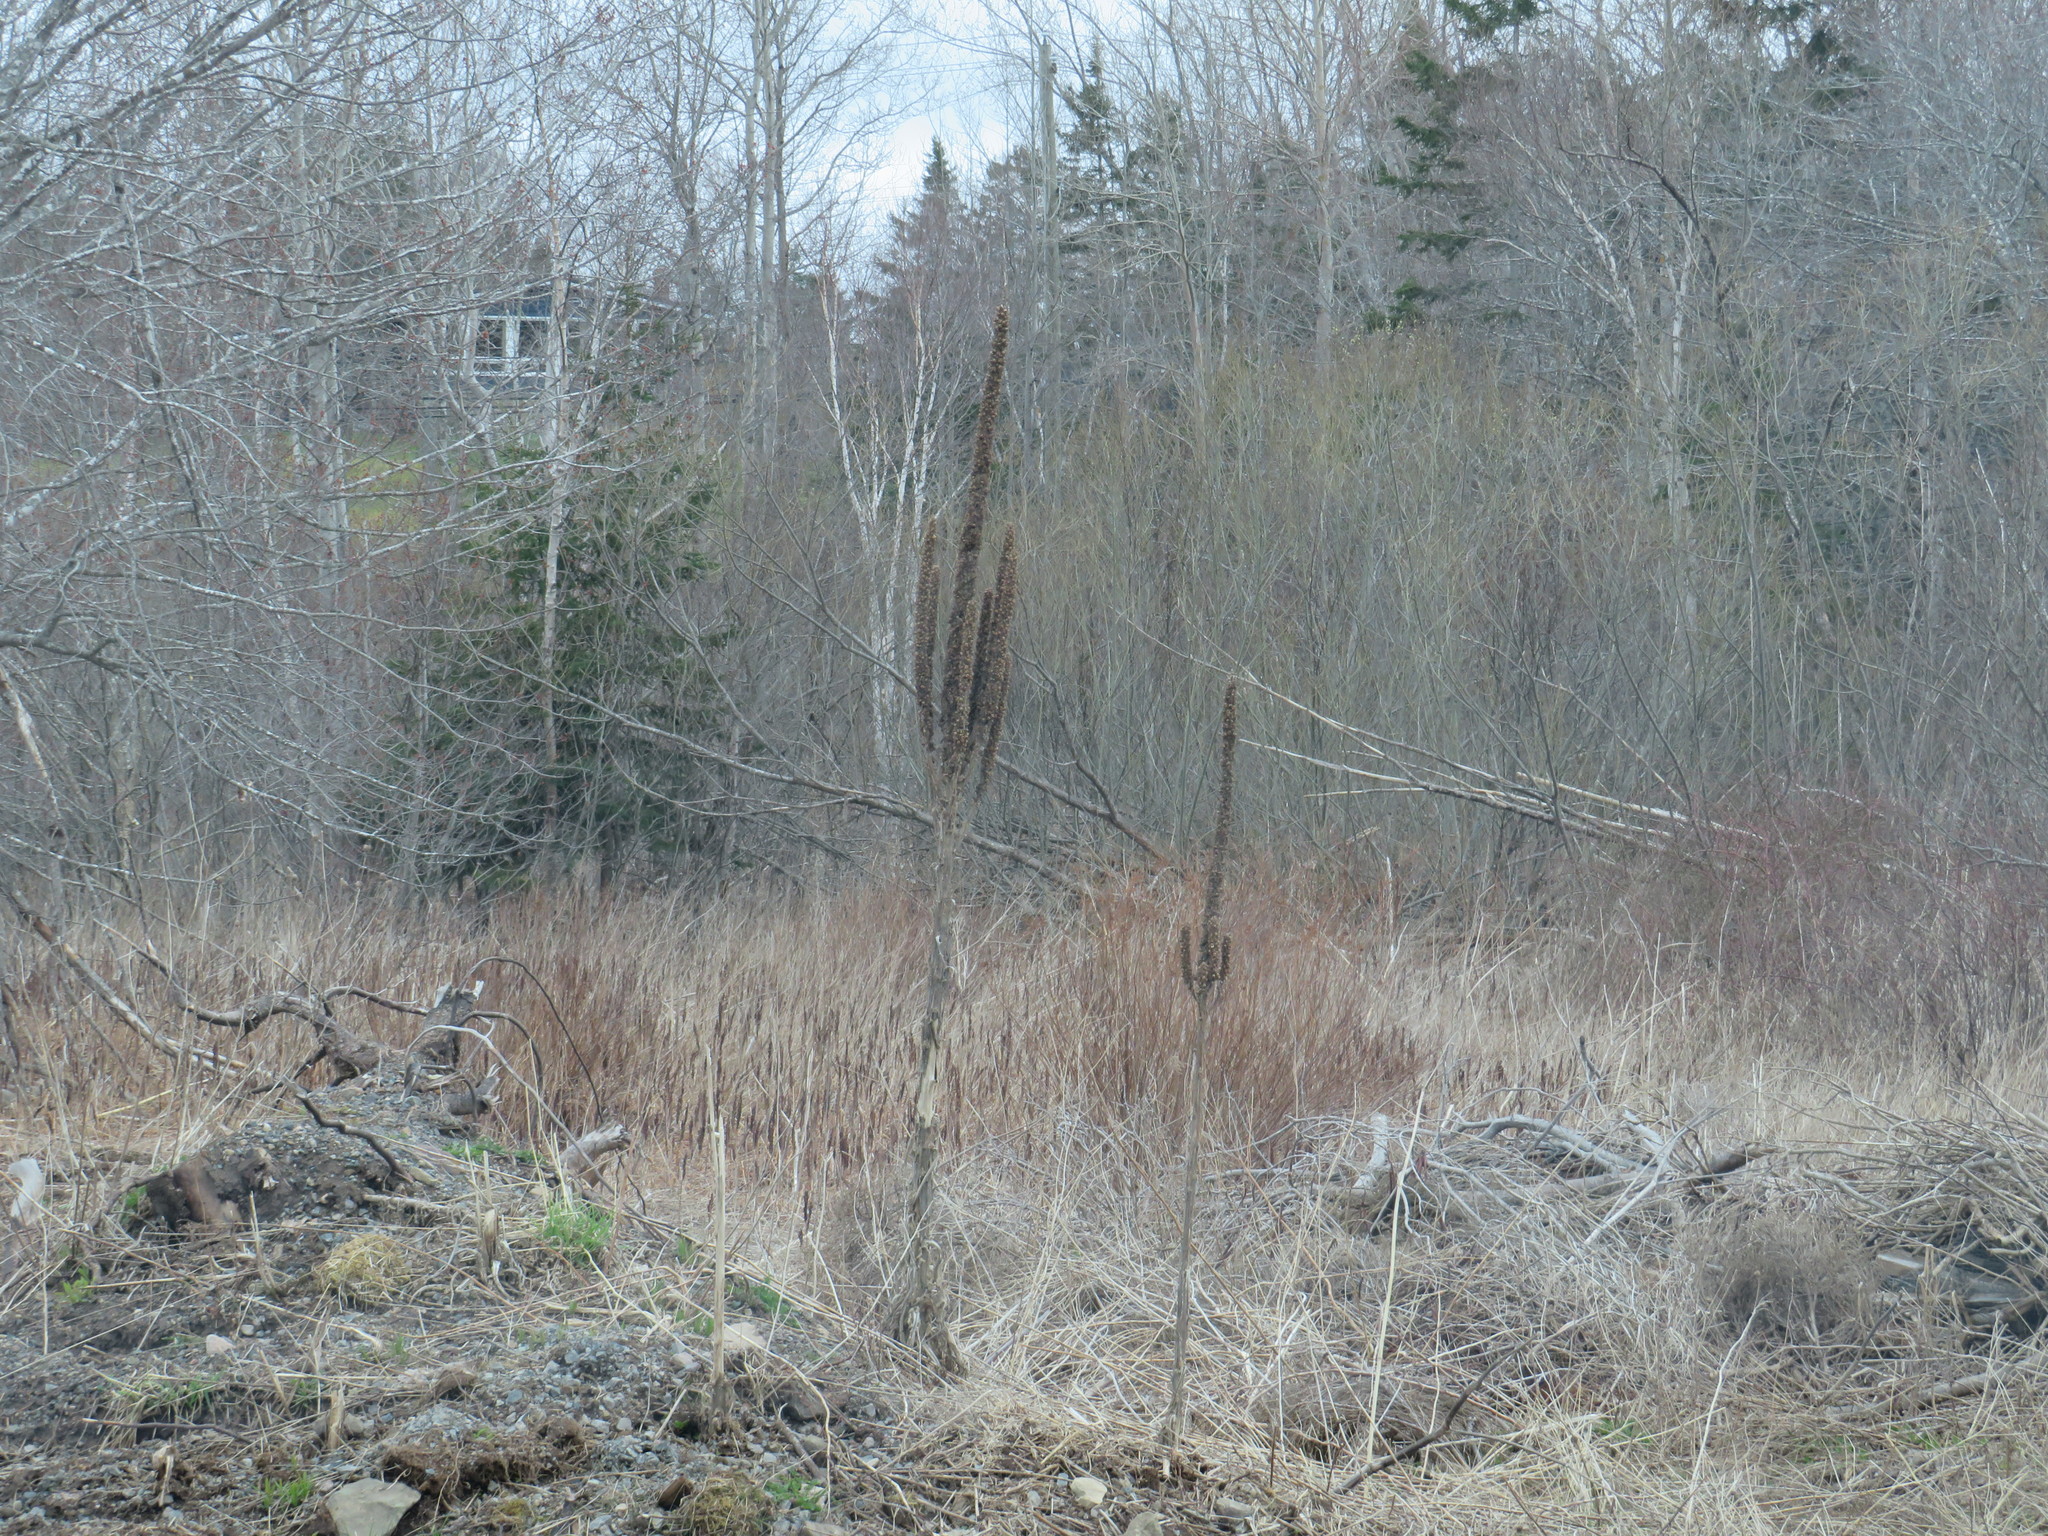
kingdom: Plantae
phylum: Tracheophyta
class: Magnoliopsida
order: Lamiales
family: Scrophulariaceae
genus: Verbascum
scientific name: Verbascum thapsus
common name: Common mullein
